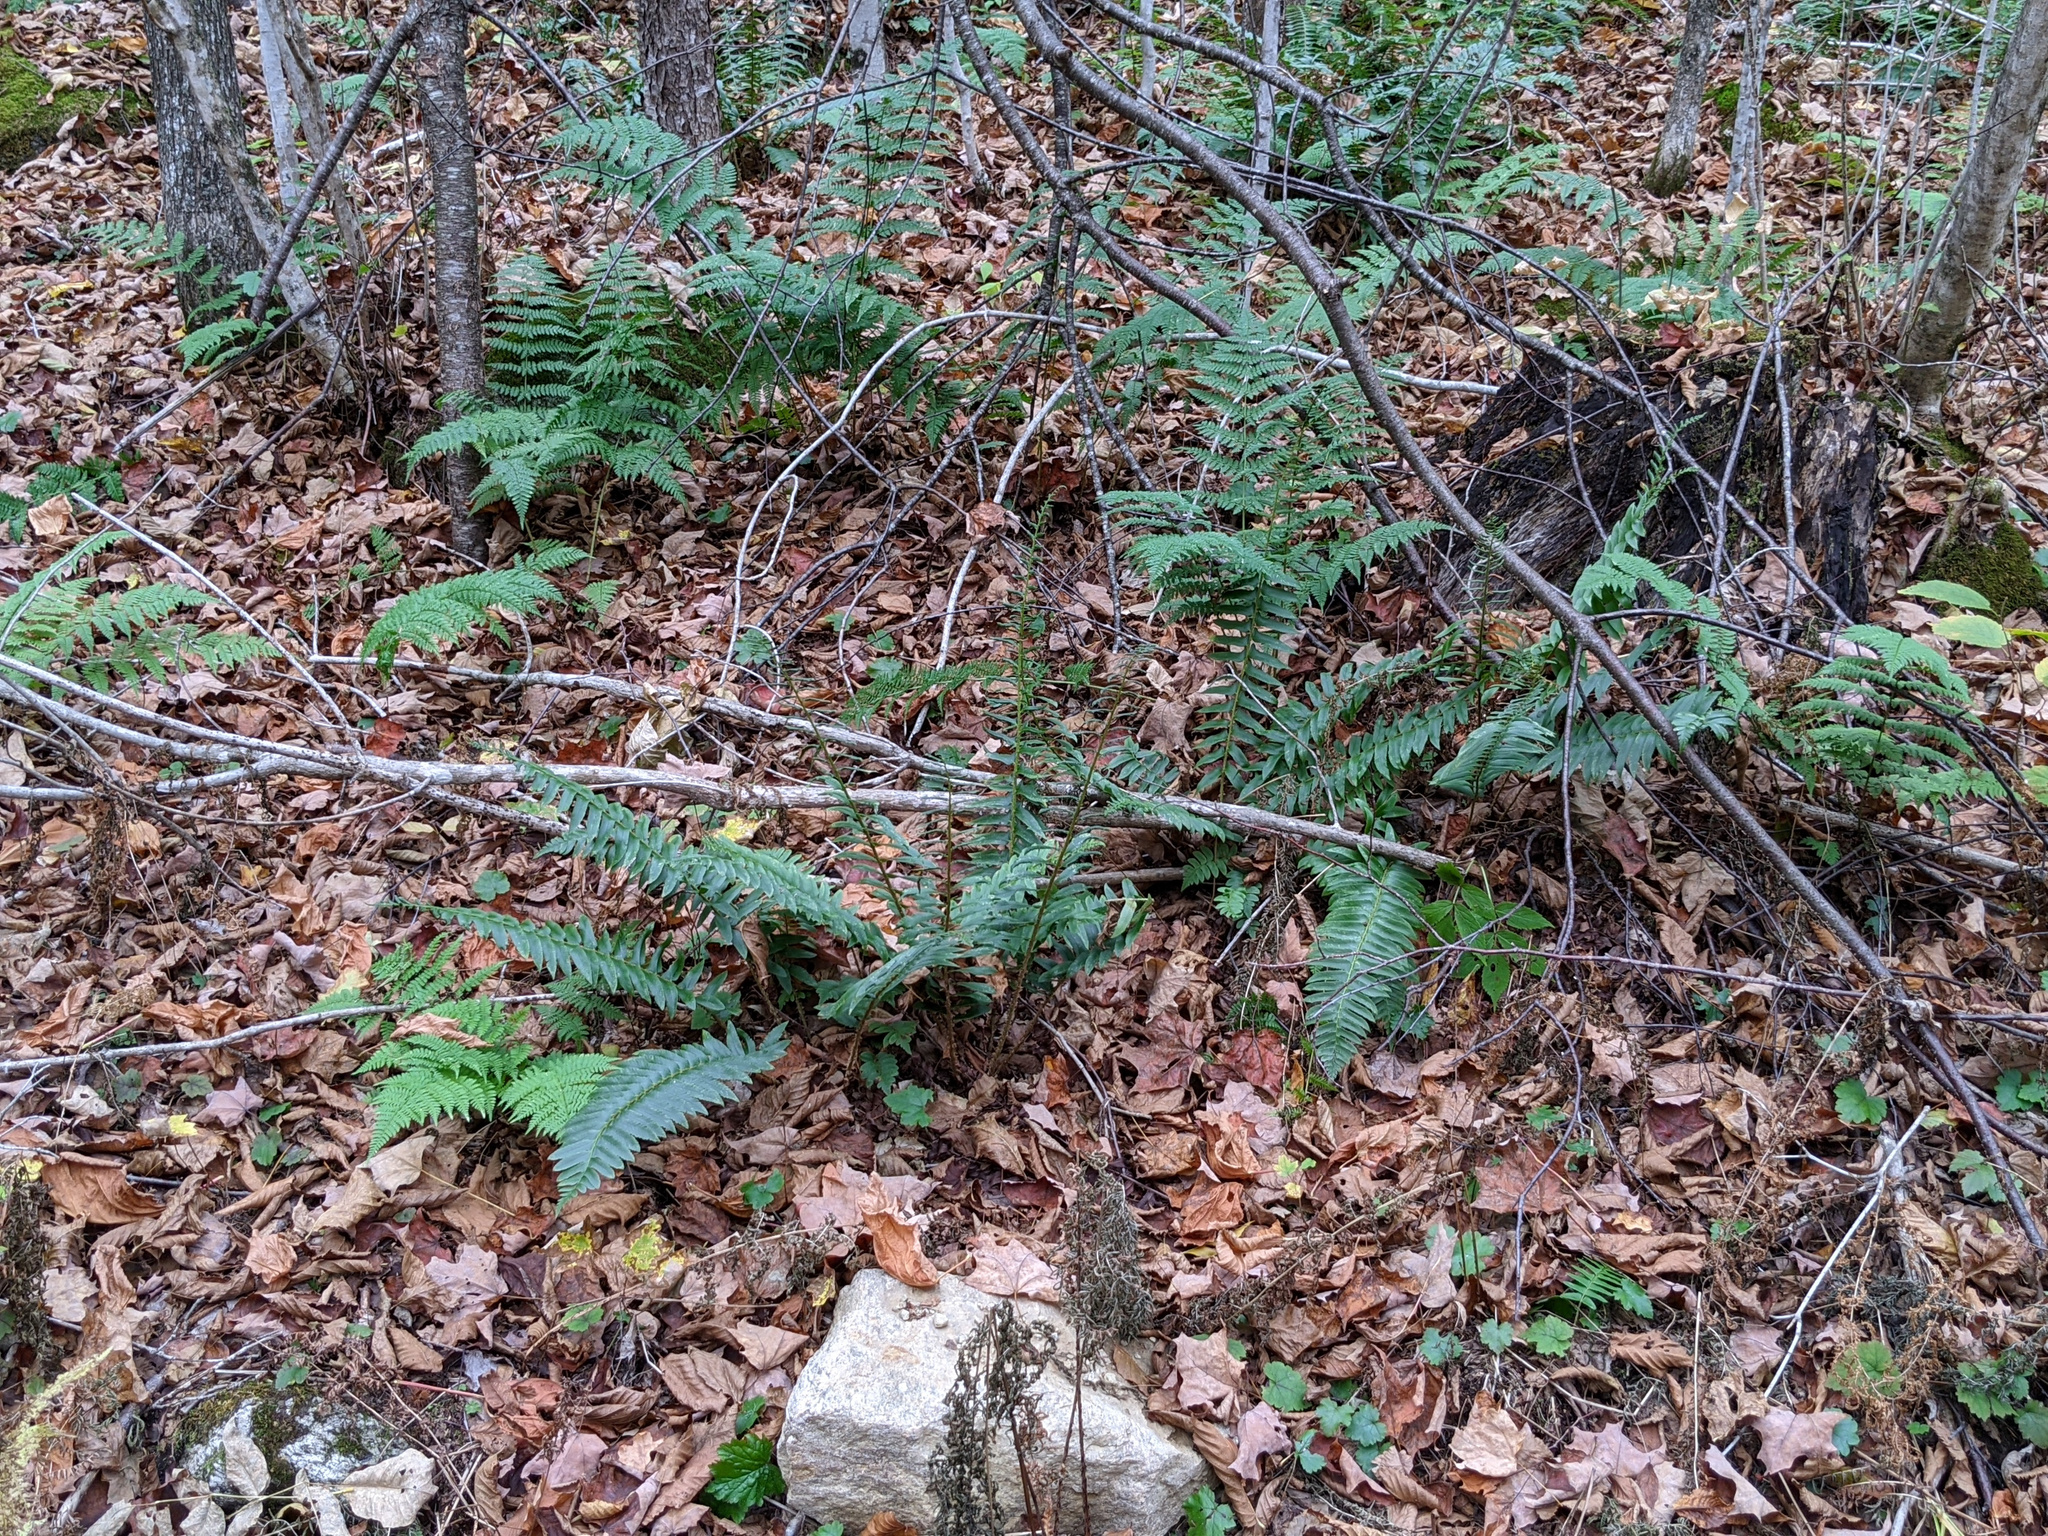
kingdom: Plantae
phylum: Tracheophyta
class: Polypodiopsida
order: Polypodiales
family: Dryopteridaceae
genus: Polystichum
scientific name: Polystichum acrostichoides
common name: Christmas fern
